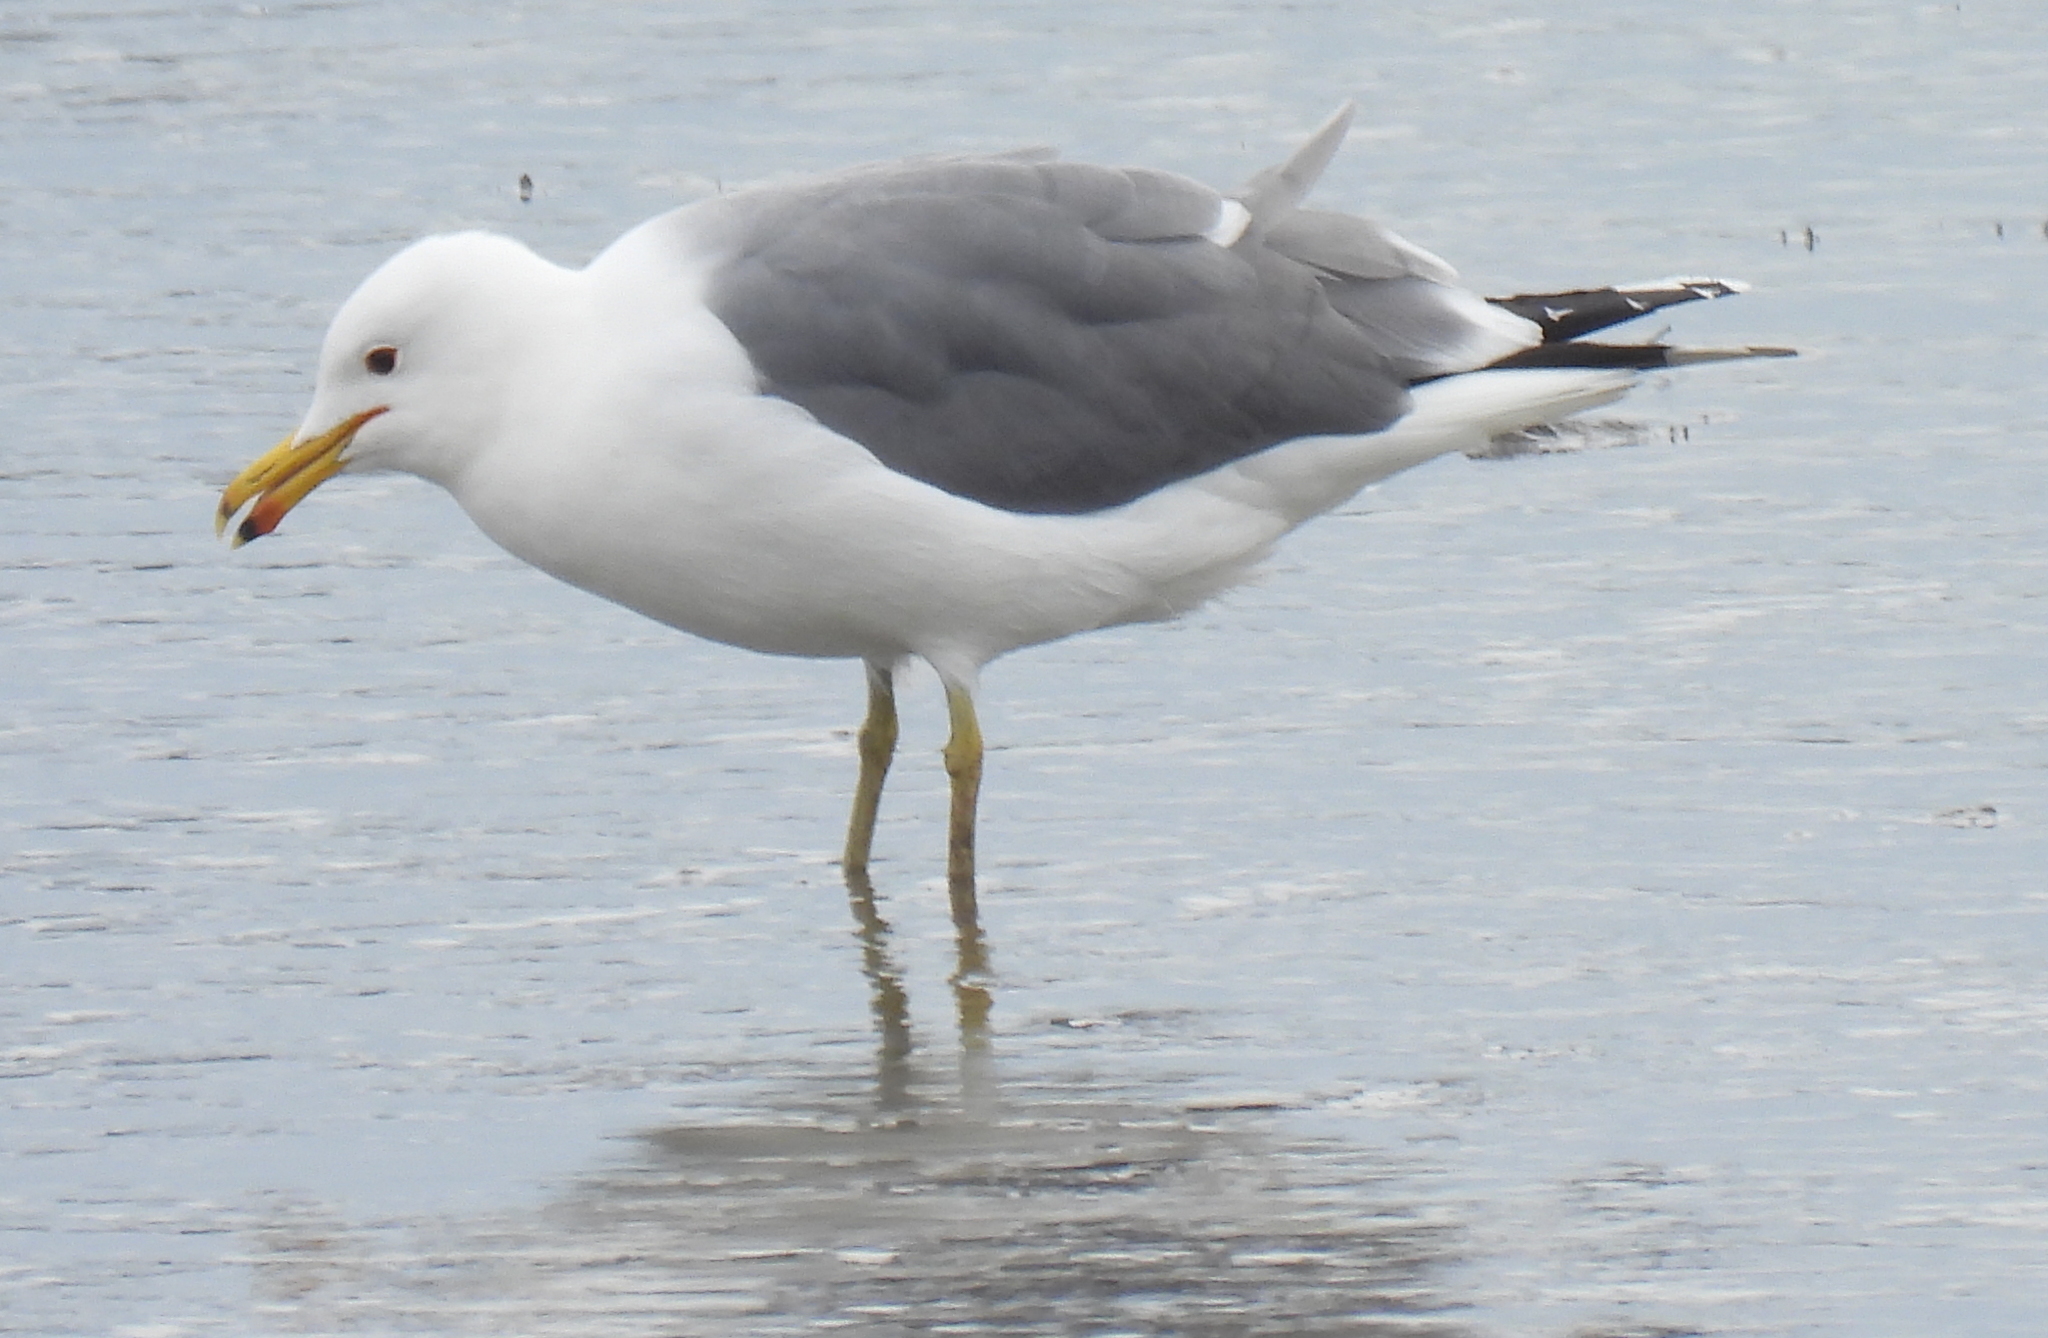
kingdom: Animalia
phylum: Chordata
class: Aves
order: Charadriiformes
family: Laridae
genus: Larus
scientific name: Larus californicus
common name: California gull
